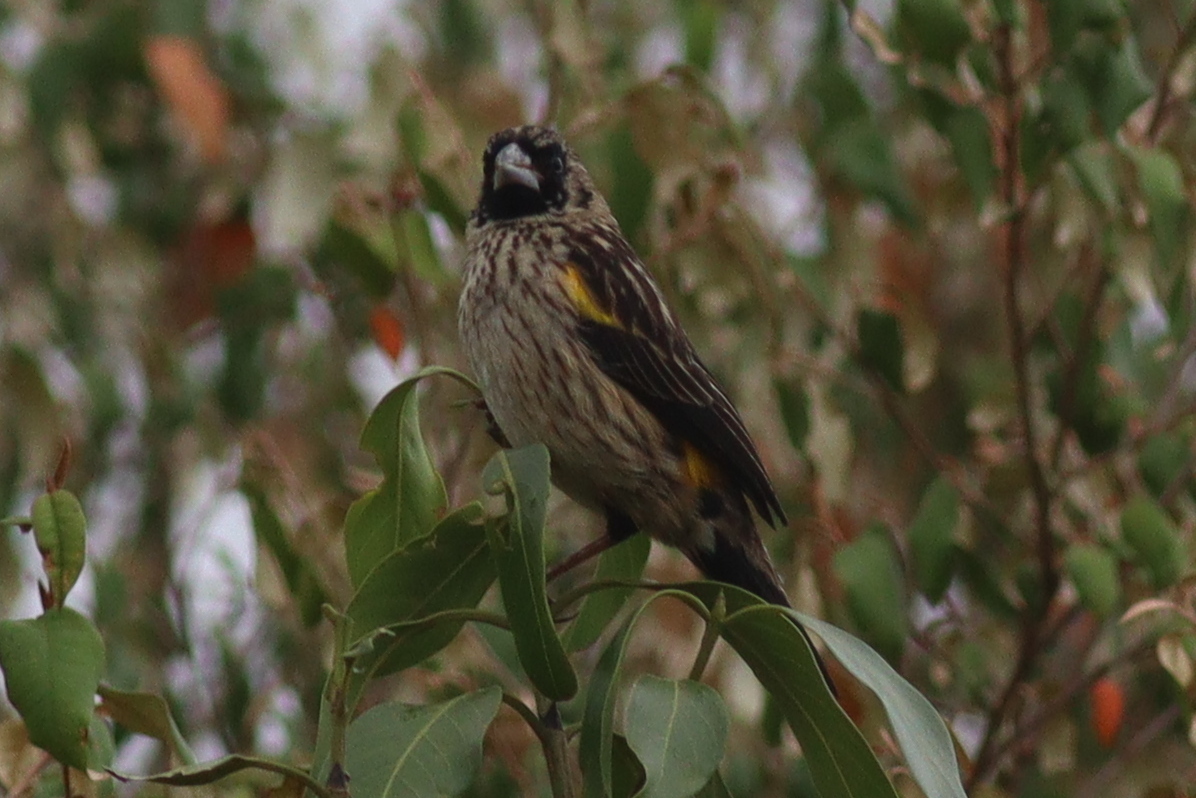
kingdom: Animalia
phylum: Chordata
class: Aves
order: Passeriformes
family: Ploceidae
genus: Euplectes
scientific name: Euplectes capensis
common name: Yellow bishop
